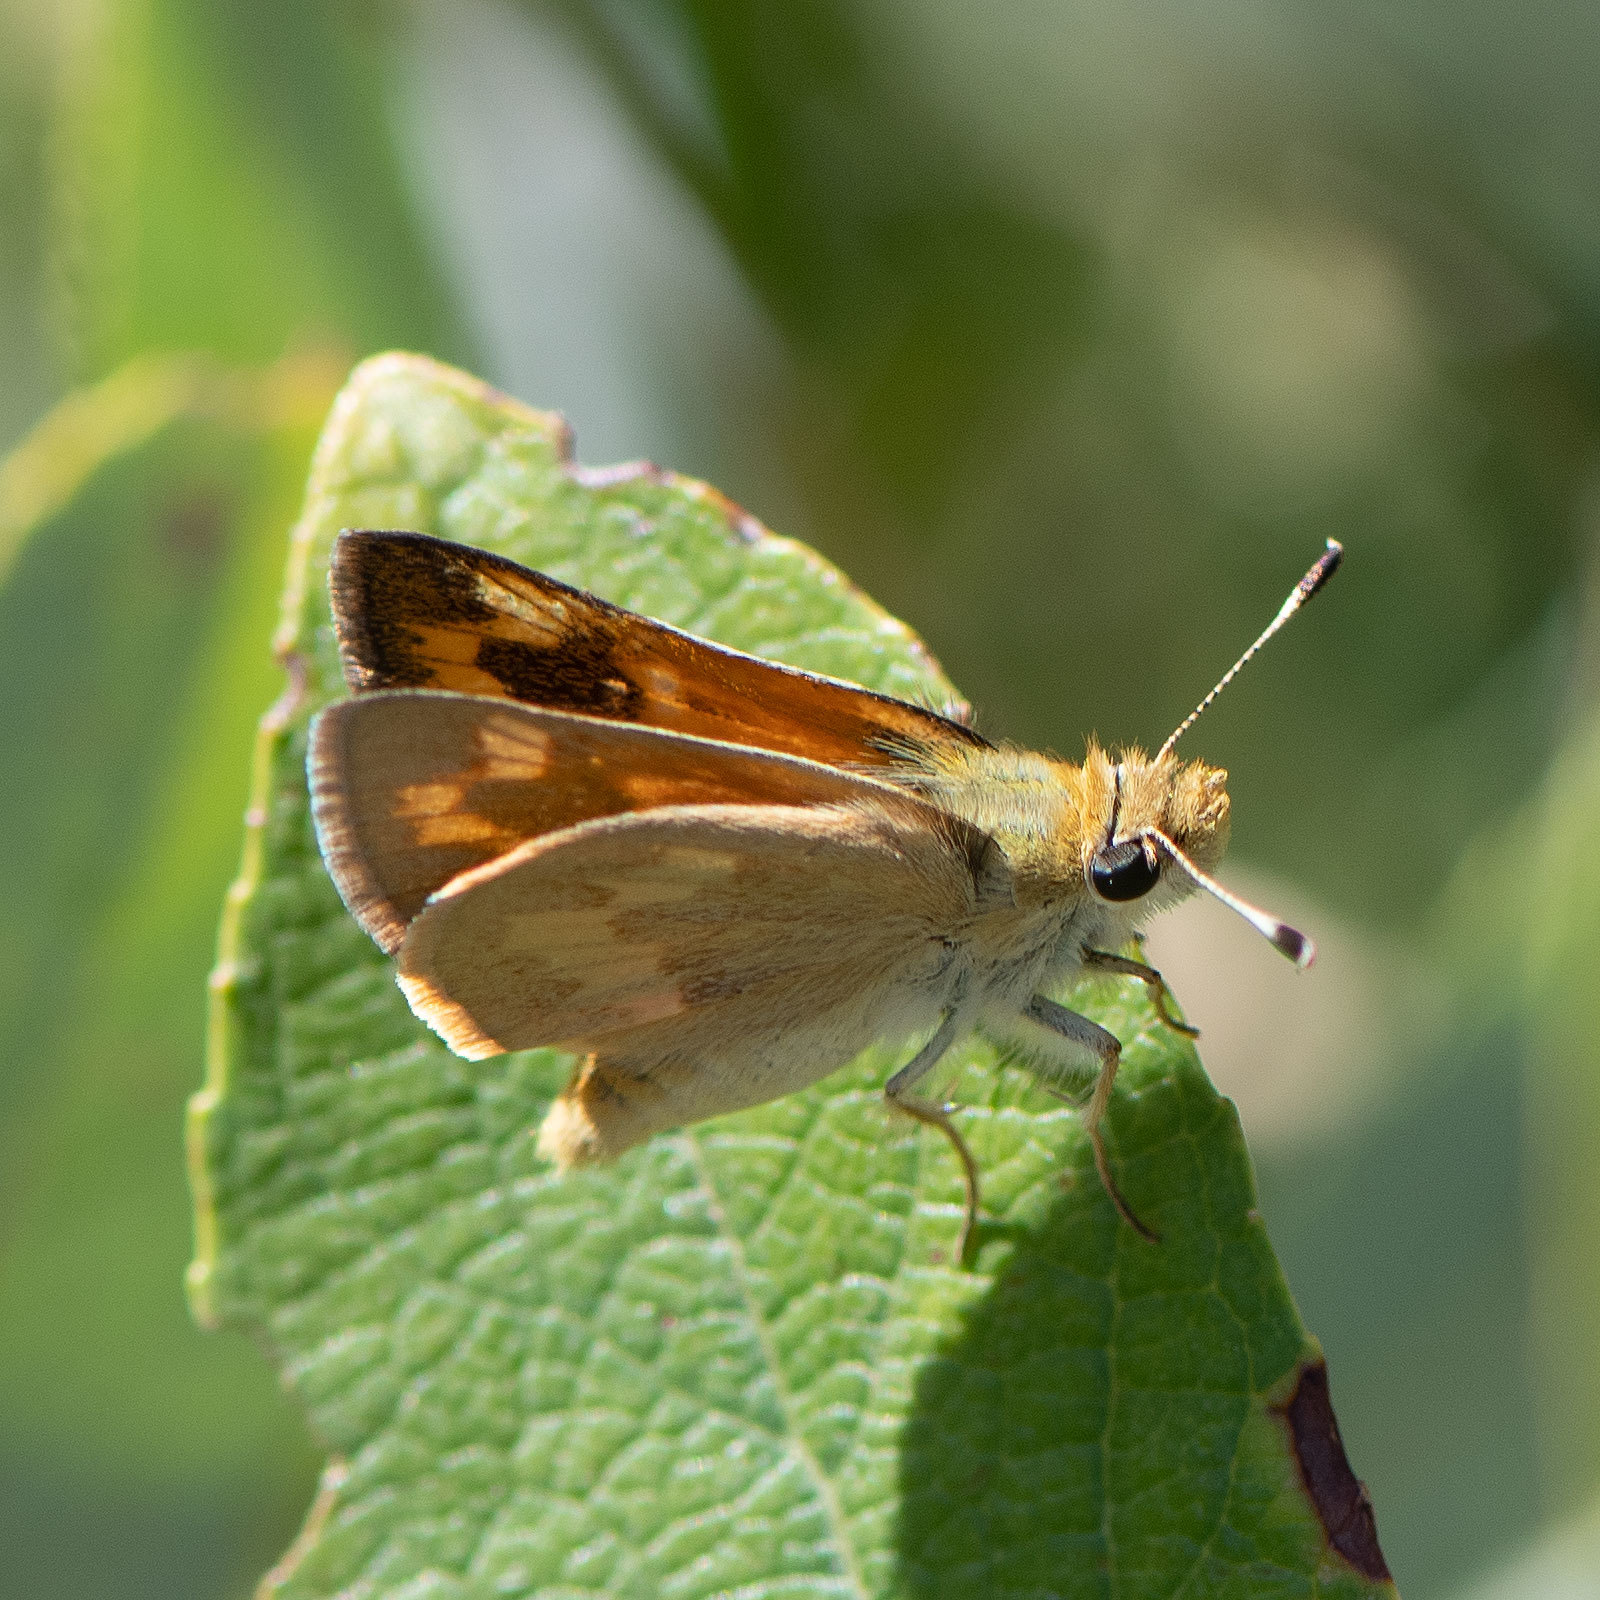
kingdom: Animalia
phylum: Arthropoda
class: Insecta
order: Lepidoptera
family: Hesperiidae
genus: Ochlodes
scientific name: Ochlodes sylvanoides
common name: Woodland skipper
